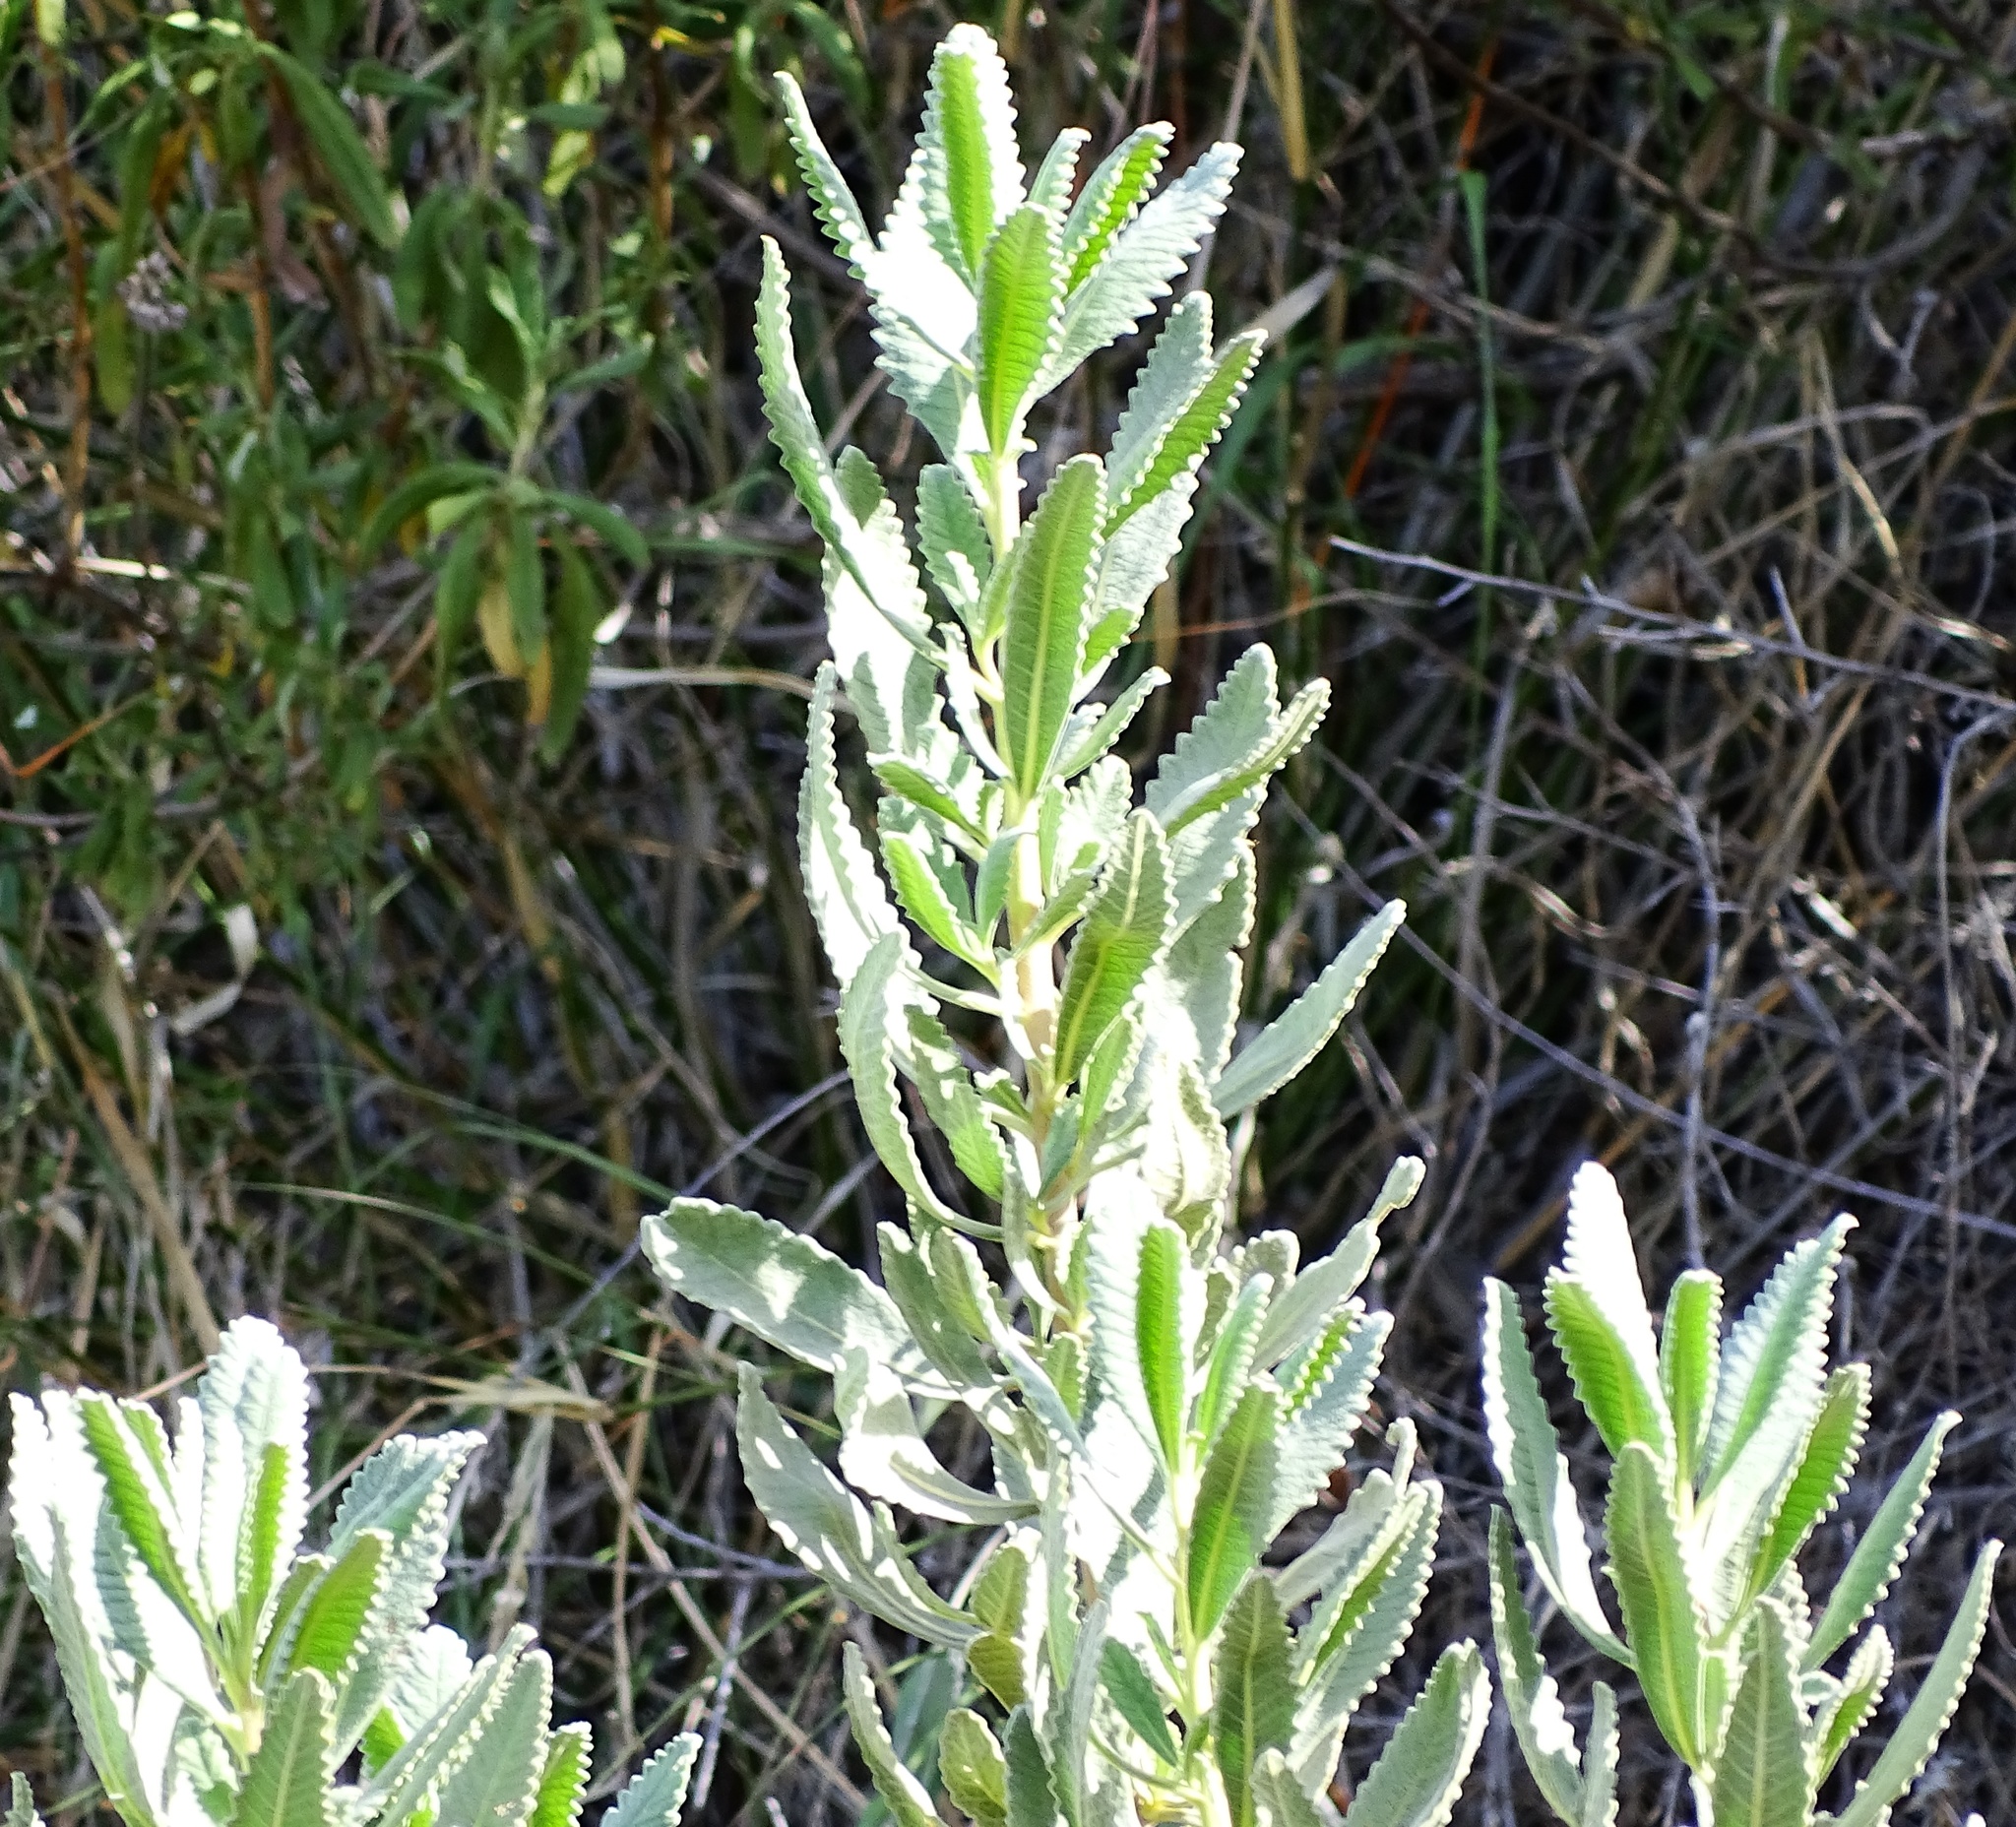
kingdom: Plantae
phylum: Tracheophyta
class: Magnoliopsida
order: Boraginales
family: Namaceae
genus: Eriodictyon
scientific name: Eriodictyon crassifolium
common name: Thick-leaf yerba-santa
